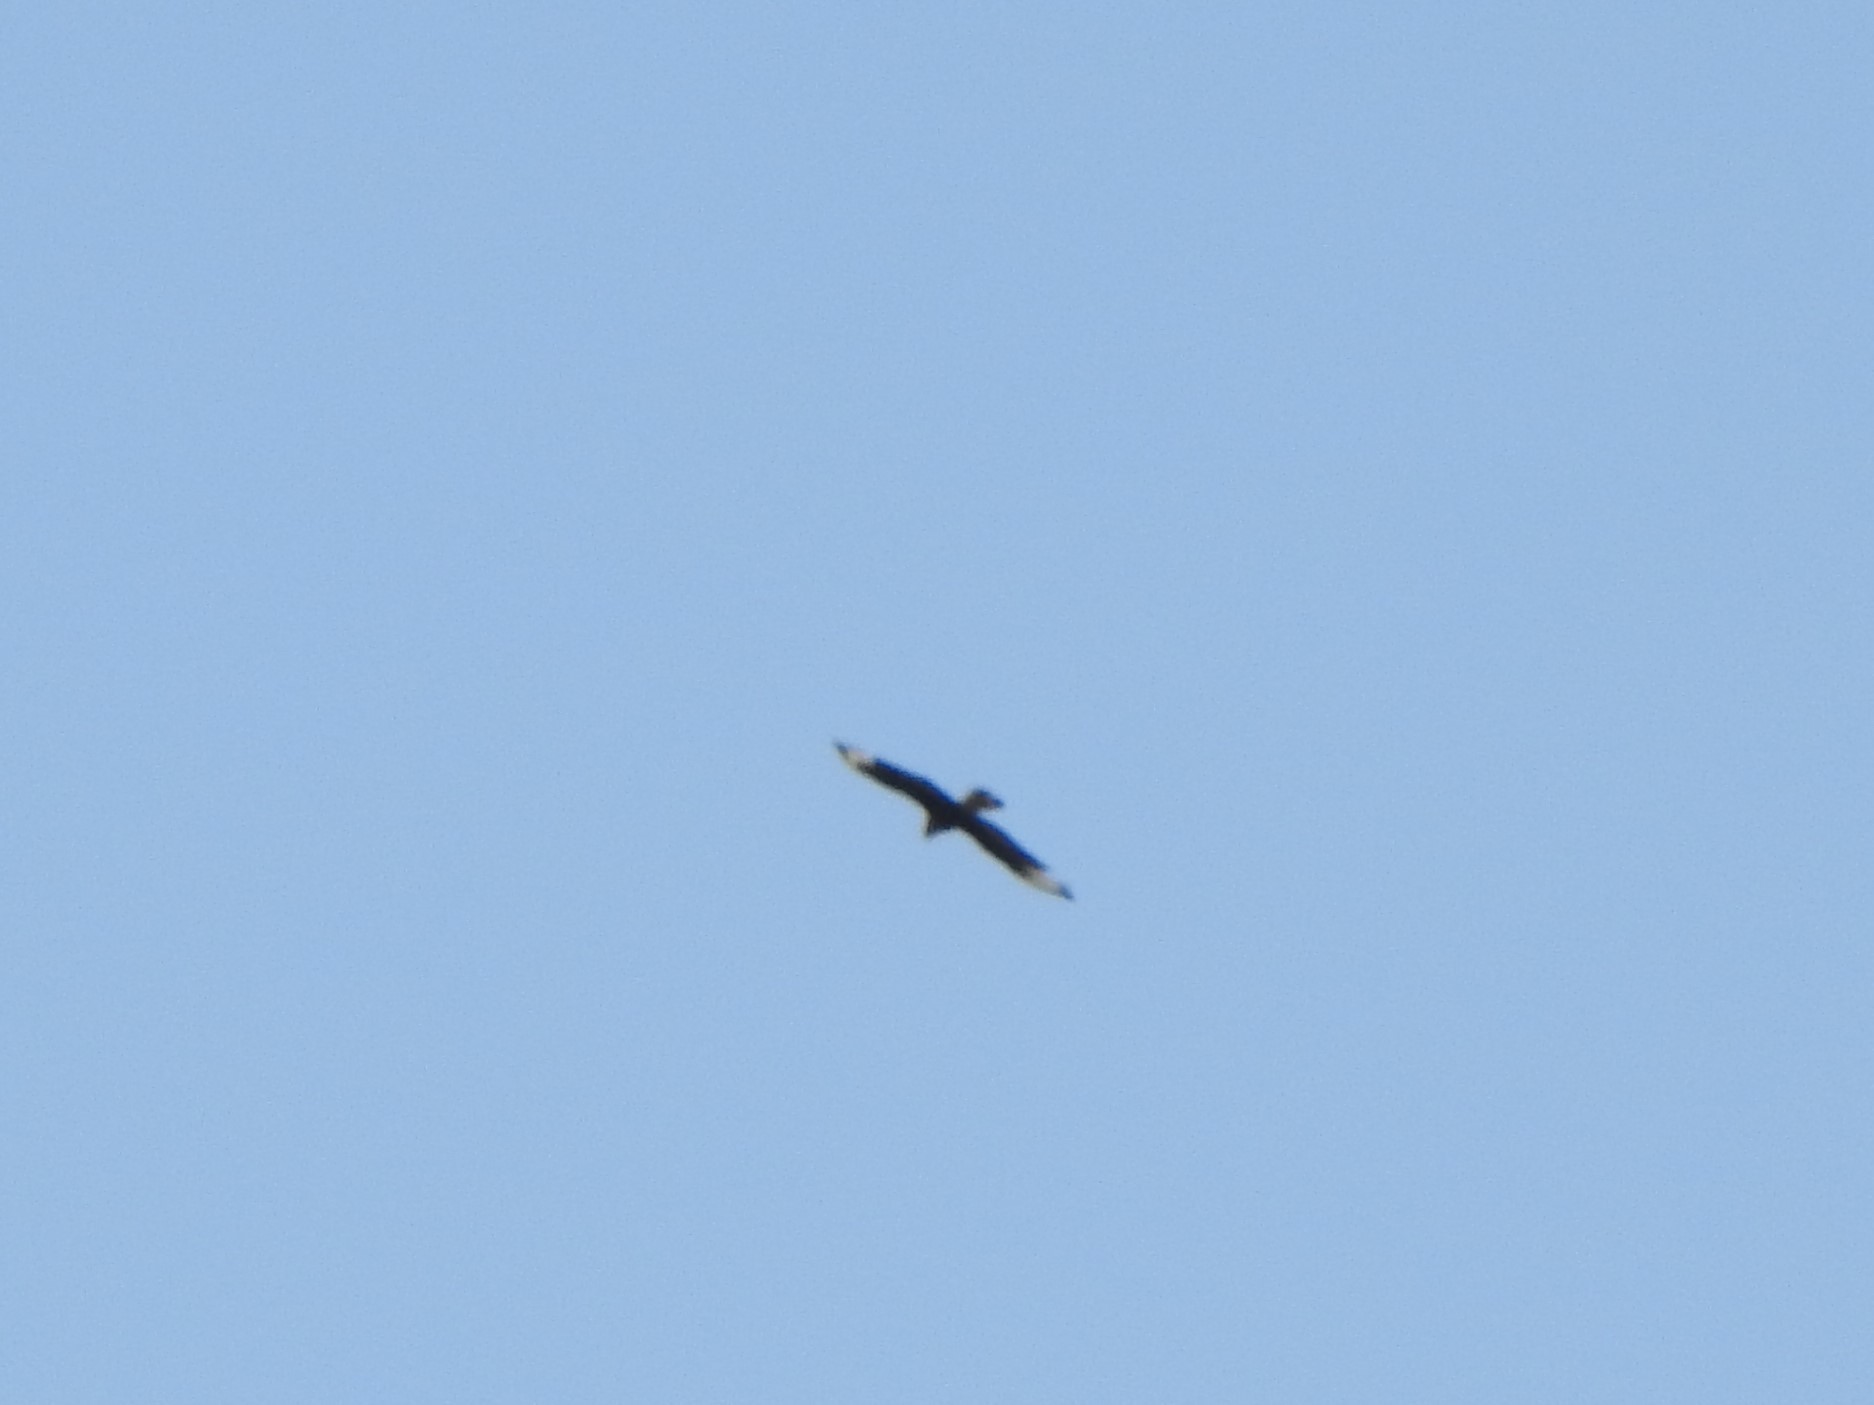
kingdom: Animalia
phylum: Chordata
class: Aves
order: Falconiformes
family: Falconidae
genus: Caracara
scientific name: Caracara plancus
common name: Southern caracara
